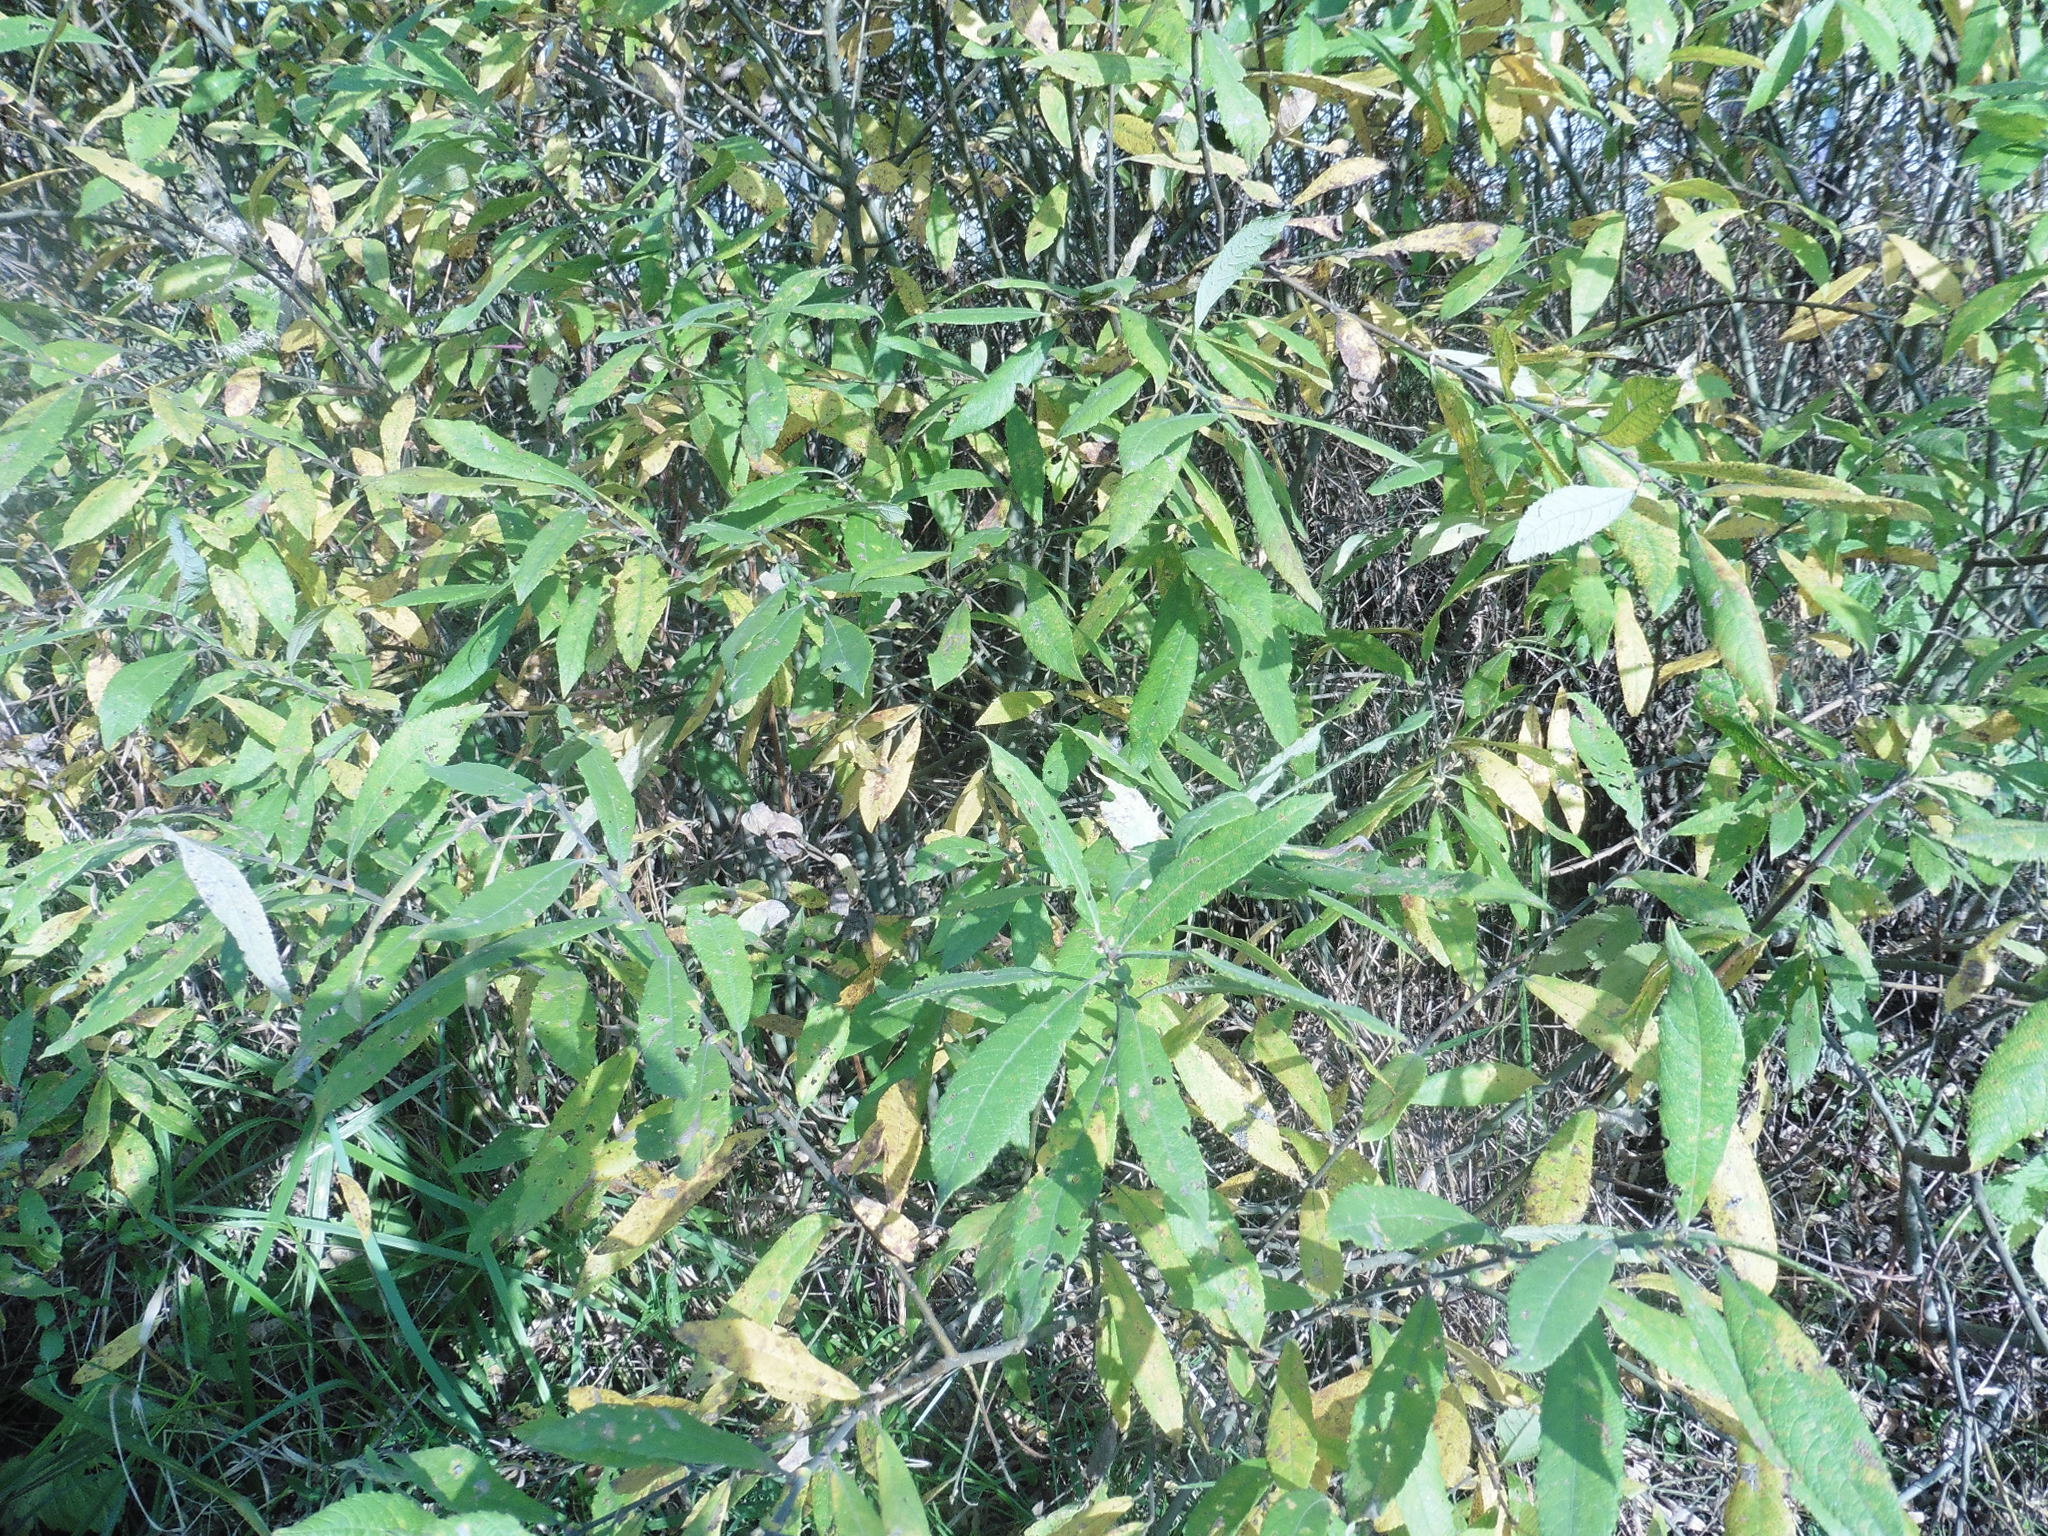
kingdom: Plantae
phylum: Tracheophyta
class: Magnoliopsida
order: Malpighiales
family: Salicaceae
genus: Salix
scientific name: Salix cinerea
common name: Common sallow
